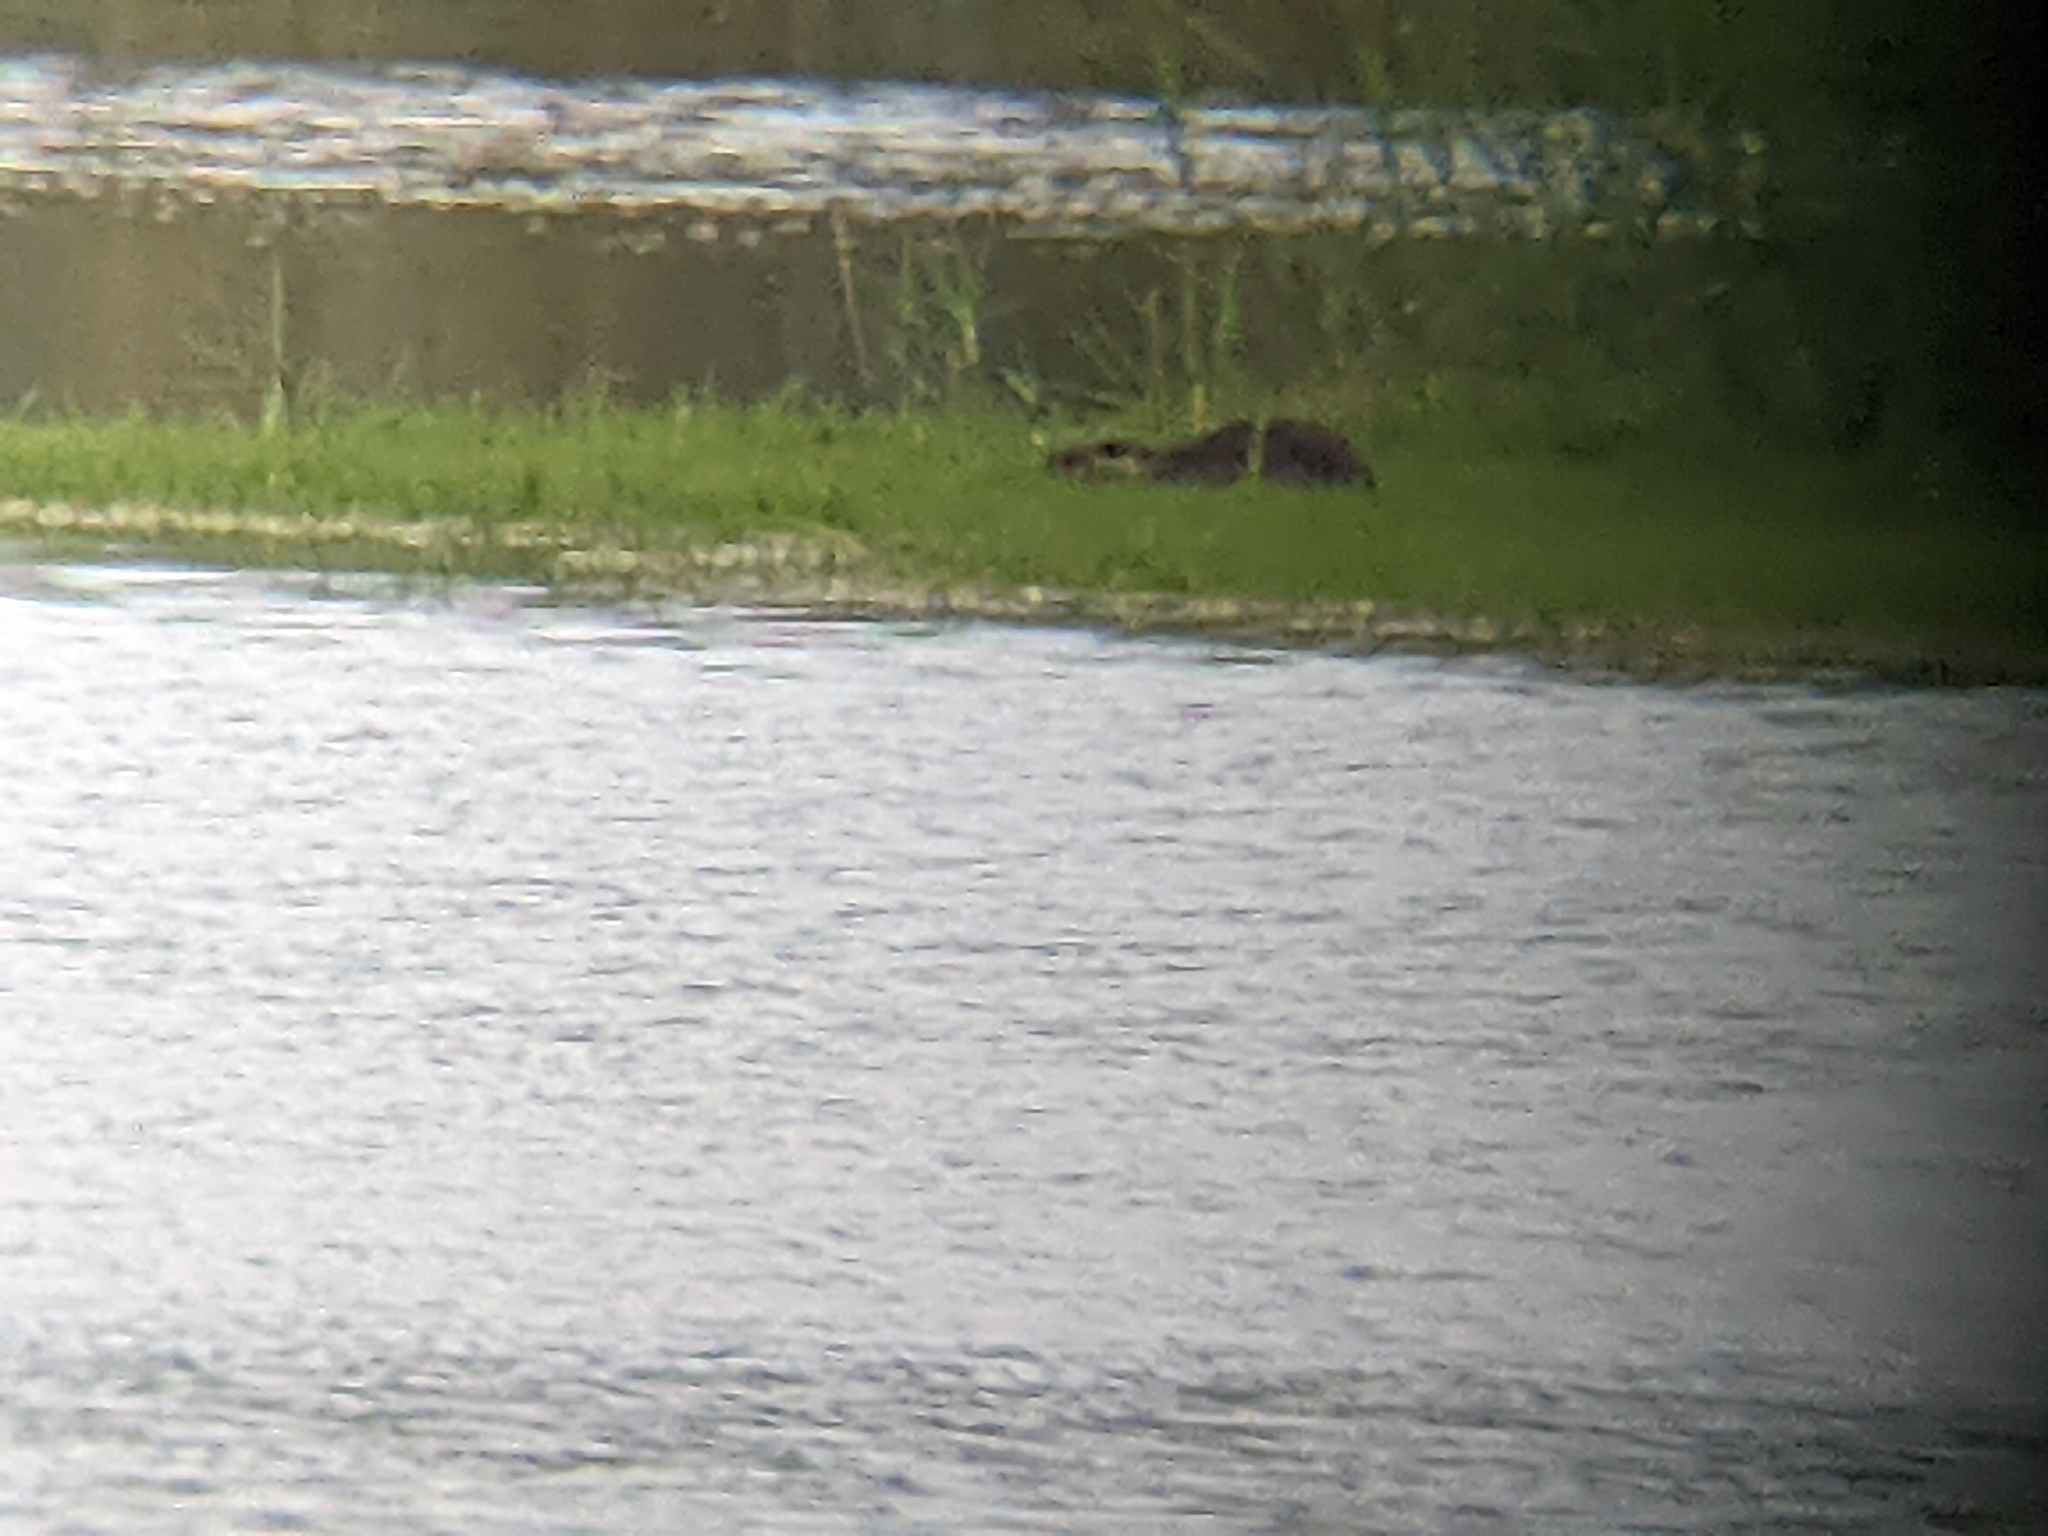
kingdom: Animalia
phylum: Chordata
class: Mammalia
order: Rodentia
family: Myocastoridae
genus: Myocastor
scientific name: Myocastor coypus
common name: Coypu
